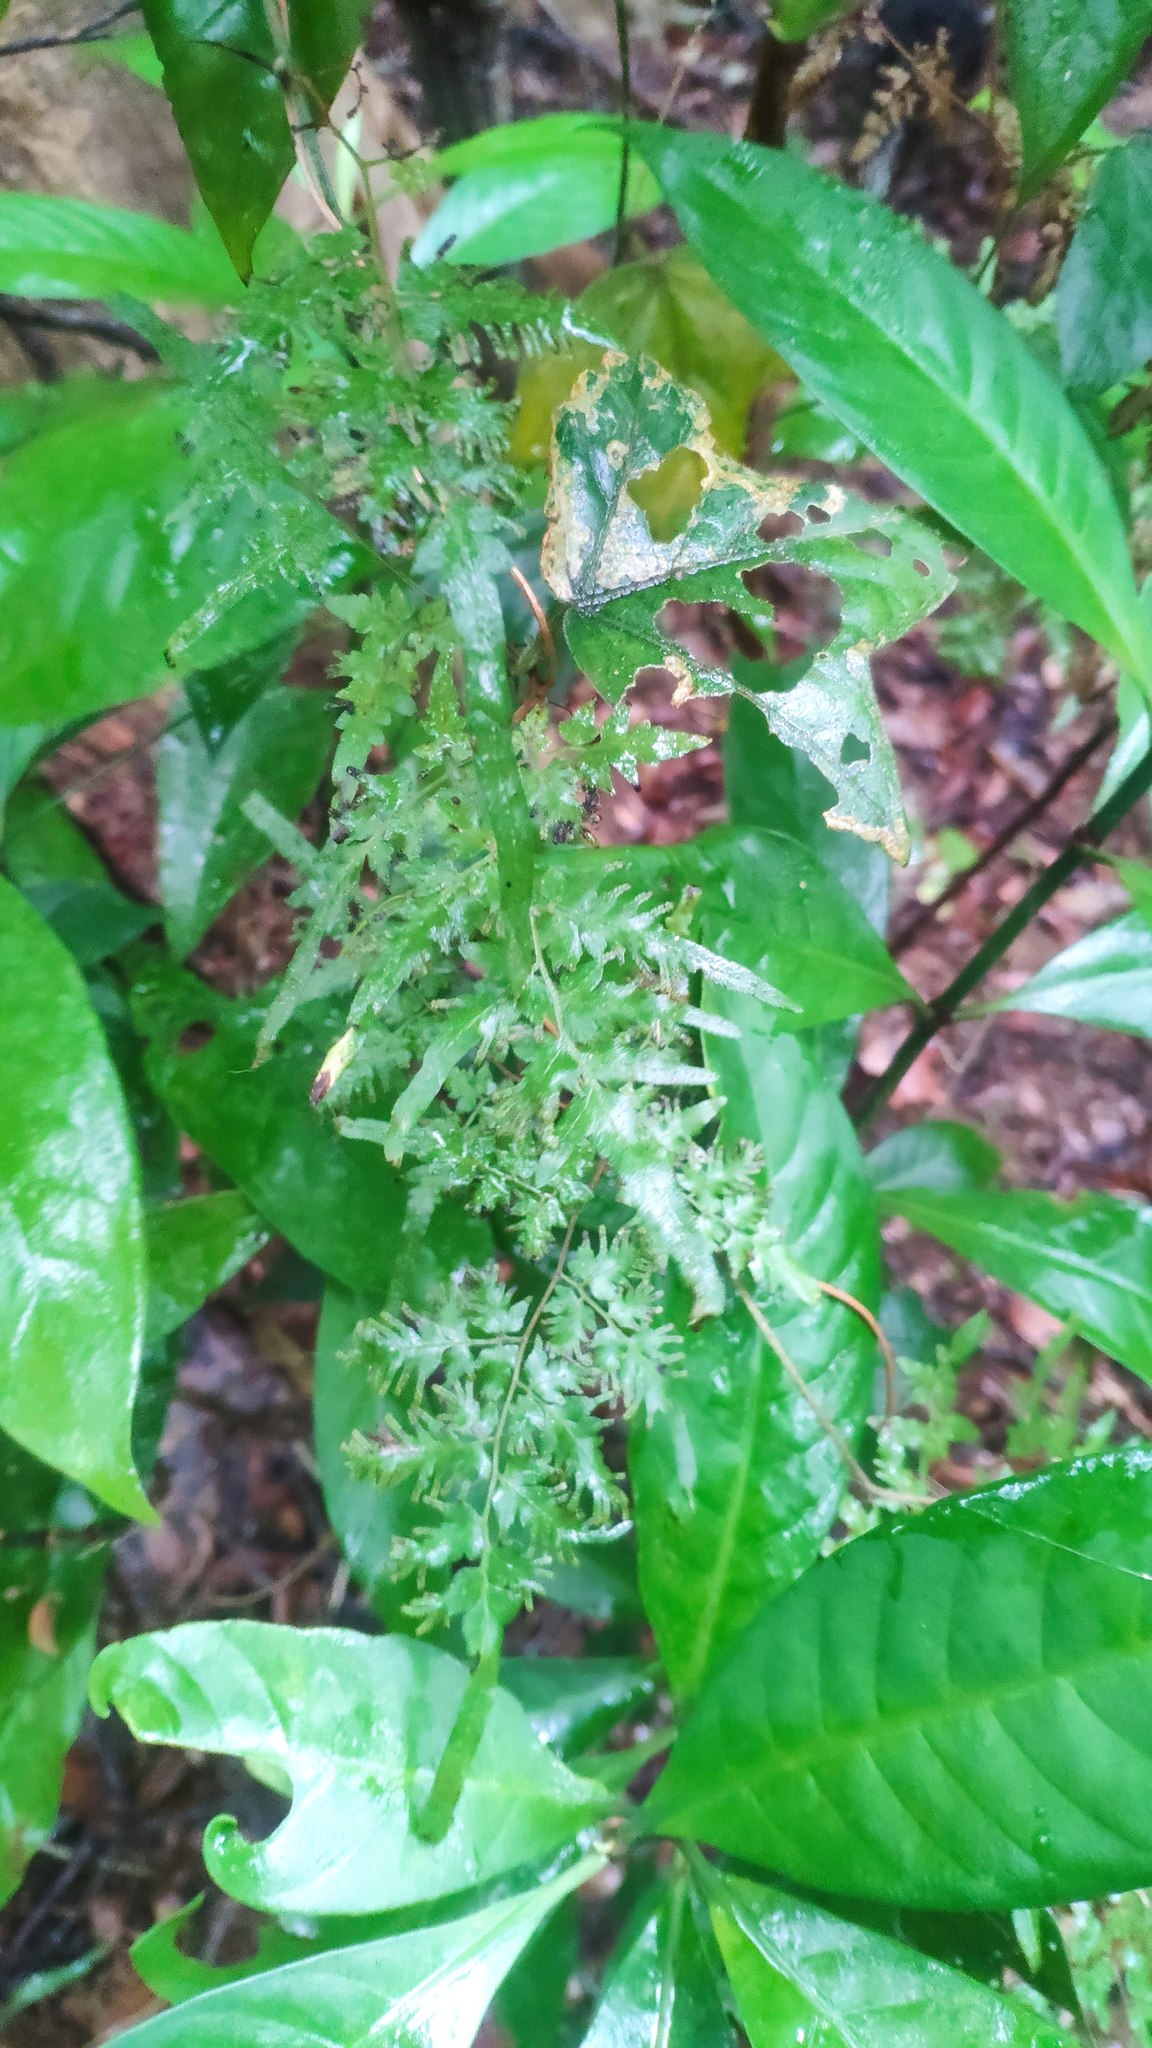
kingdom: Plantae
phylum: Tracheophyta
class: Polypodiopsida
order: Schizaeales
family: Lygodiaceae
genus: Lygodium
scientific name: Lygodium japonicum
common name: Japanese climbing fern
